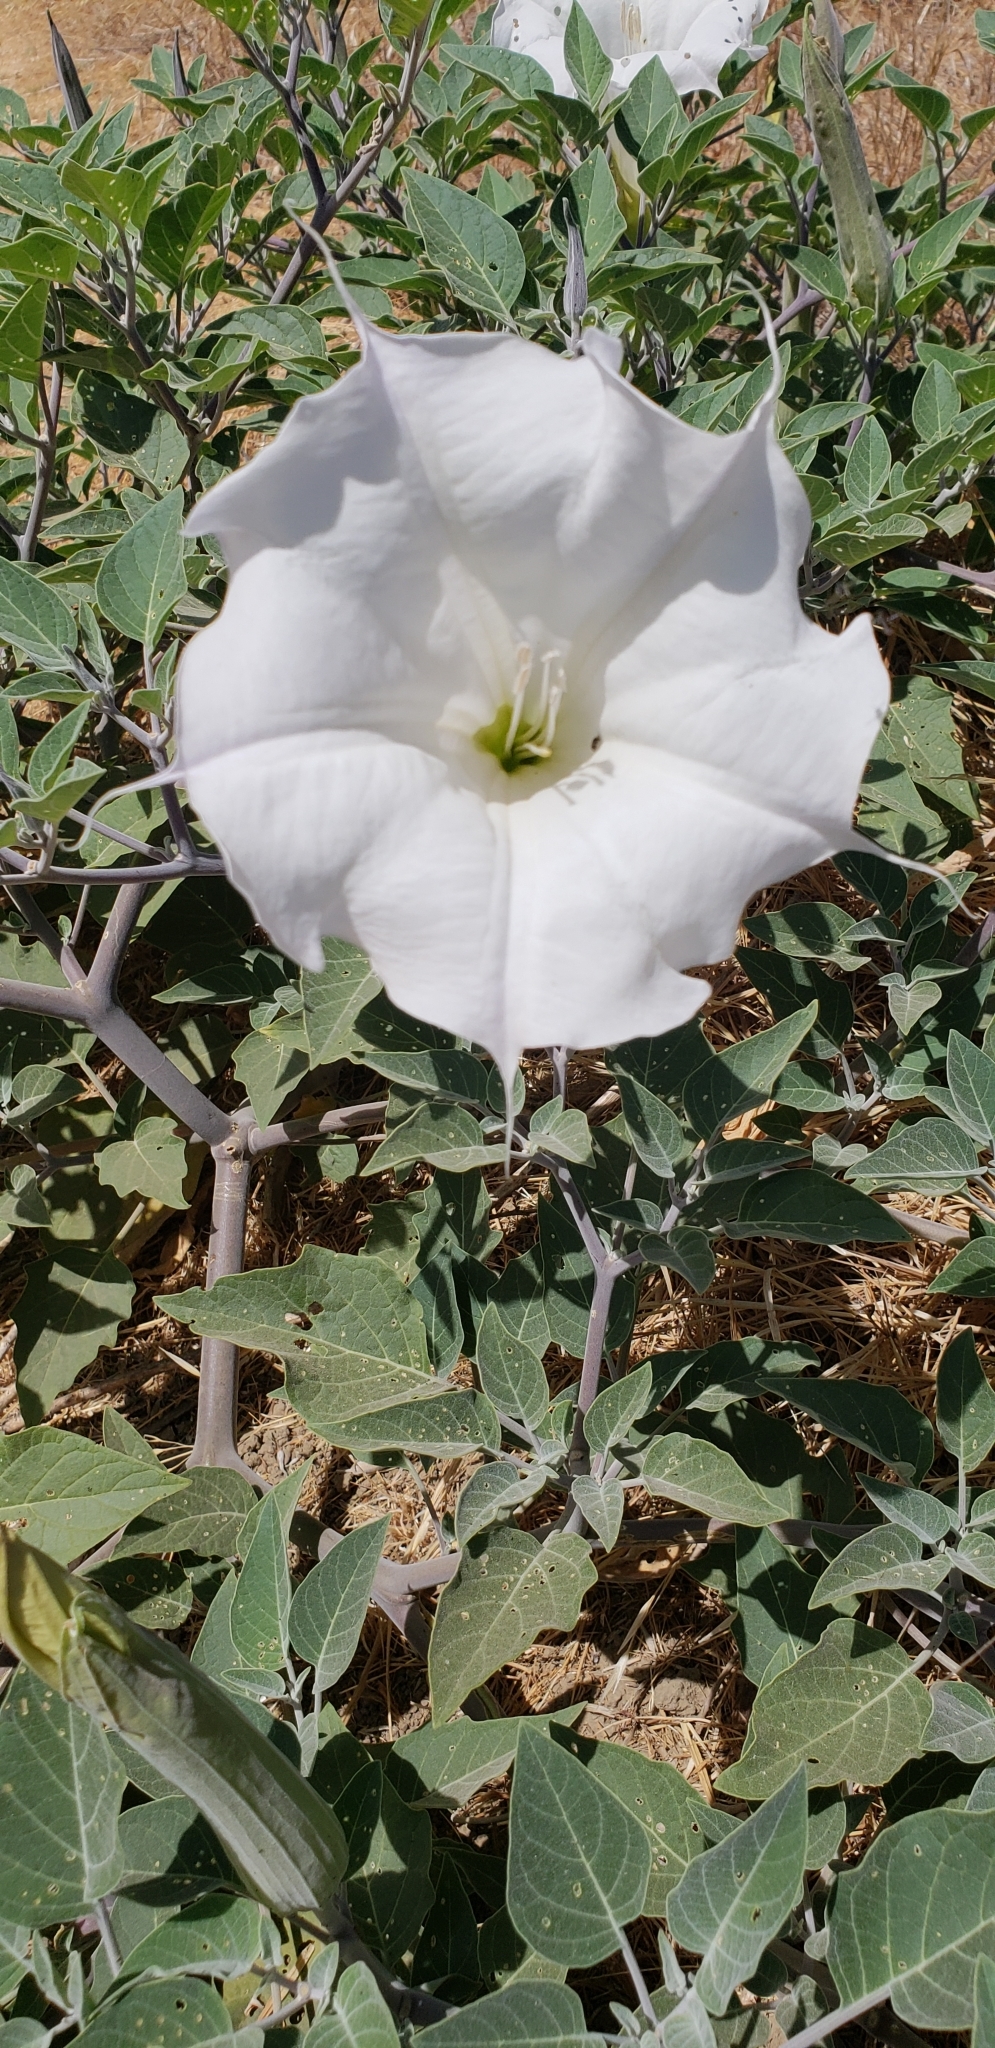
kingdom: Plantae
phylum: Tracheophyta
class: Magnoliopsida
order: Solanales
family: Solanaceae
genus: Datura
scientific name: Datura wrightii
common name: Sacred thorn-apple
